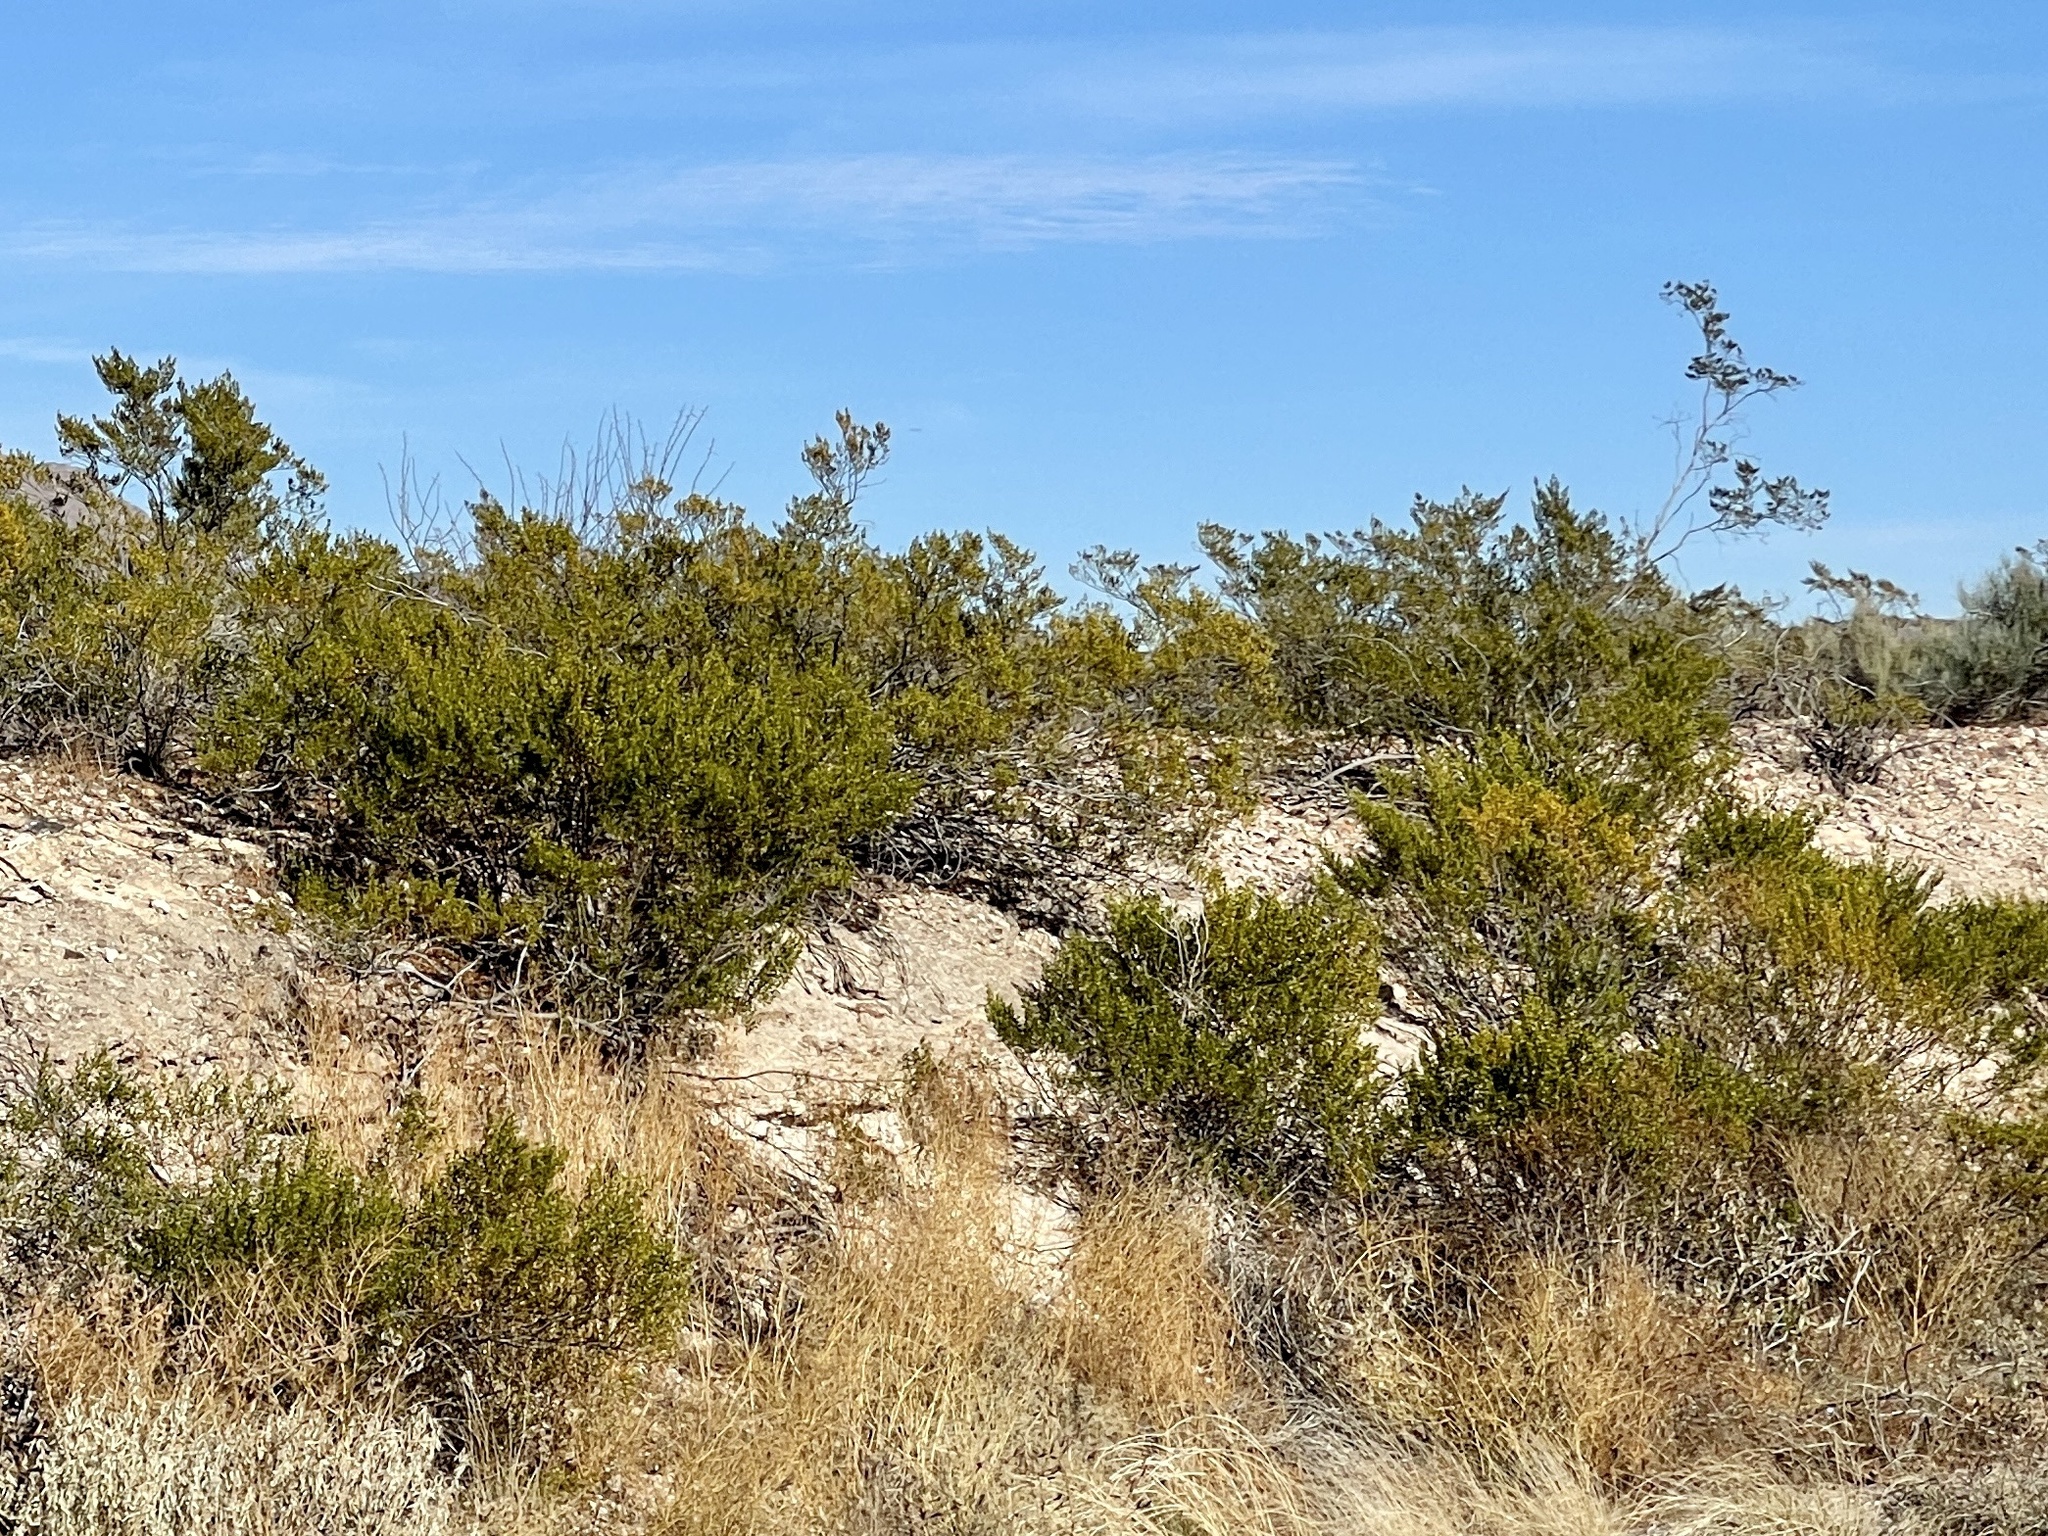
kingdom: Plantae
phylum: Tracheophyta
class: Magnoliopsida
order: Zygophyllales
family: Zygophyllaceae
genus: Larrea
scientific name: Larrea tridentata
